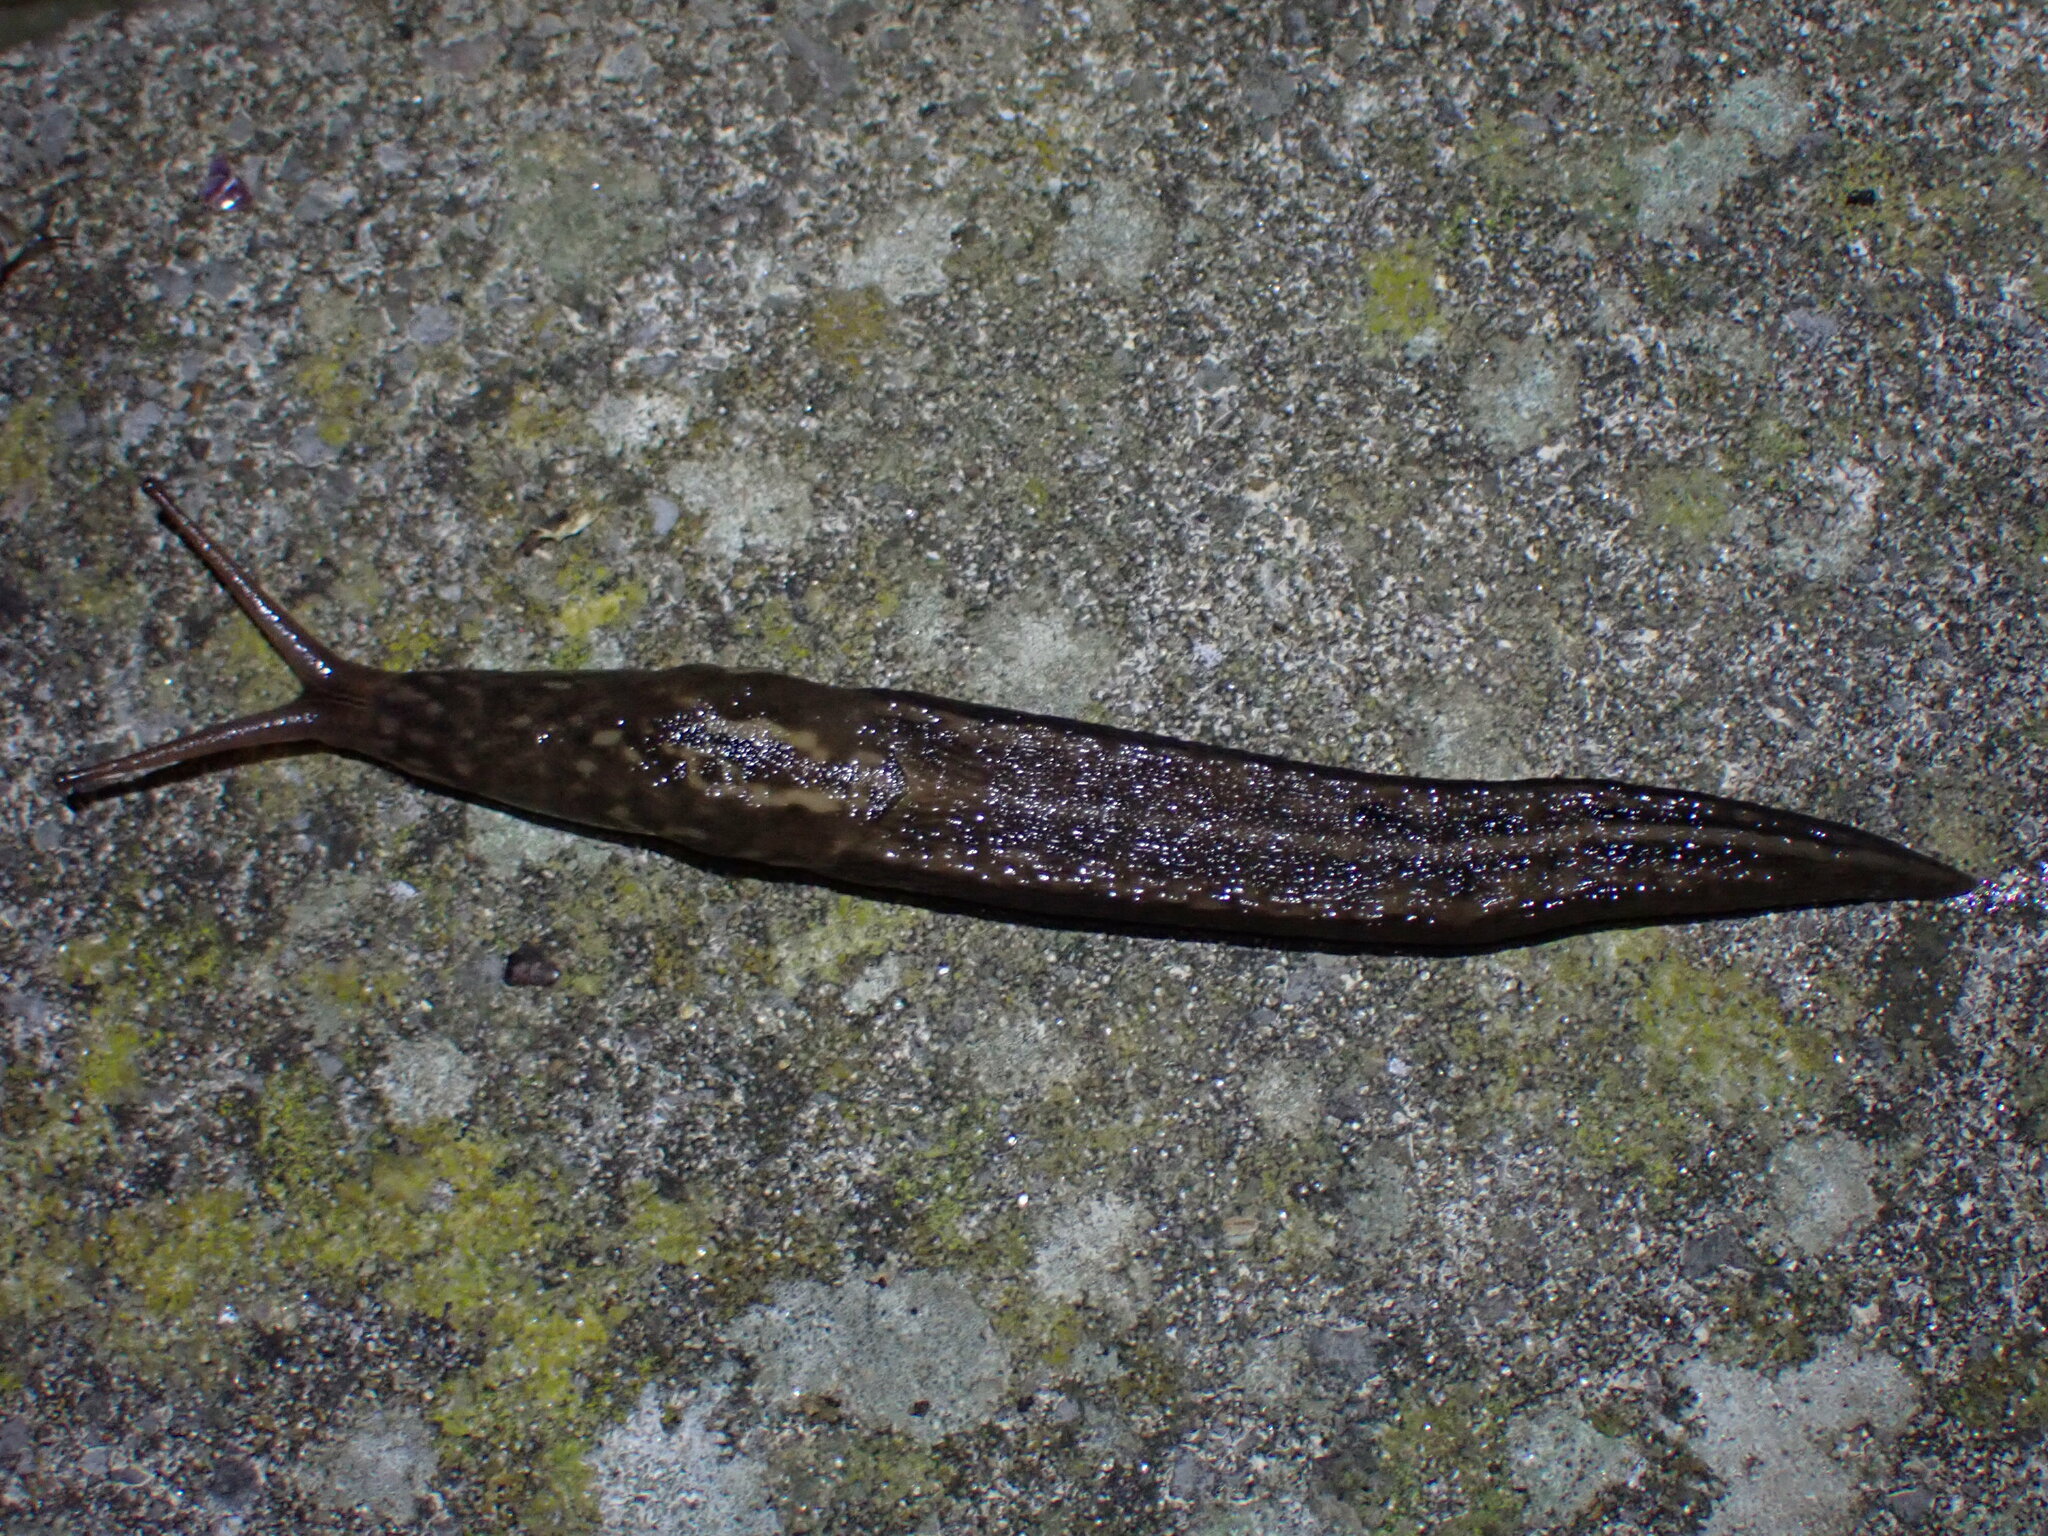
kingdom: Animalia
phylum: Mollusca
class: Gastropoda
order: Stylommatophora
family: Limacidae
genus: Limax
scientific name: Limax maximus
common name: Great grey slug
